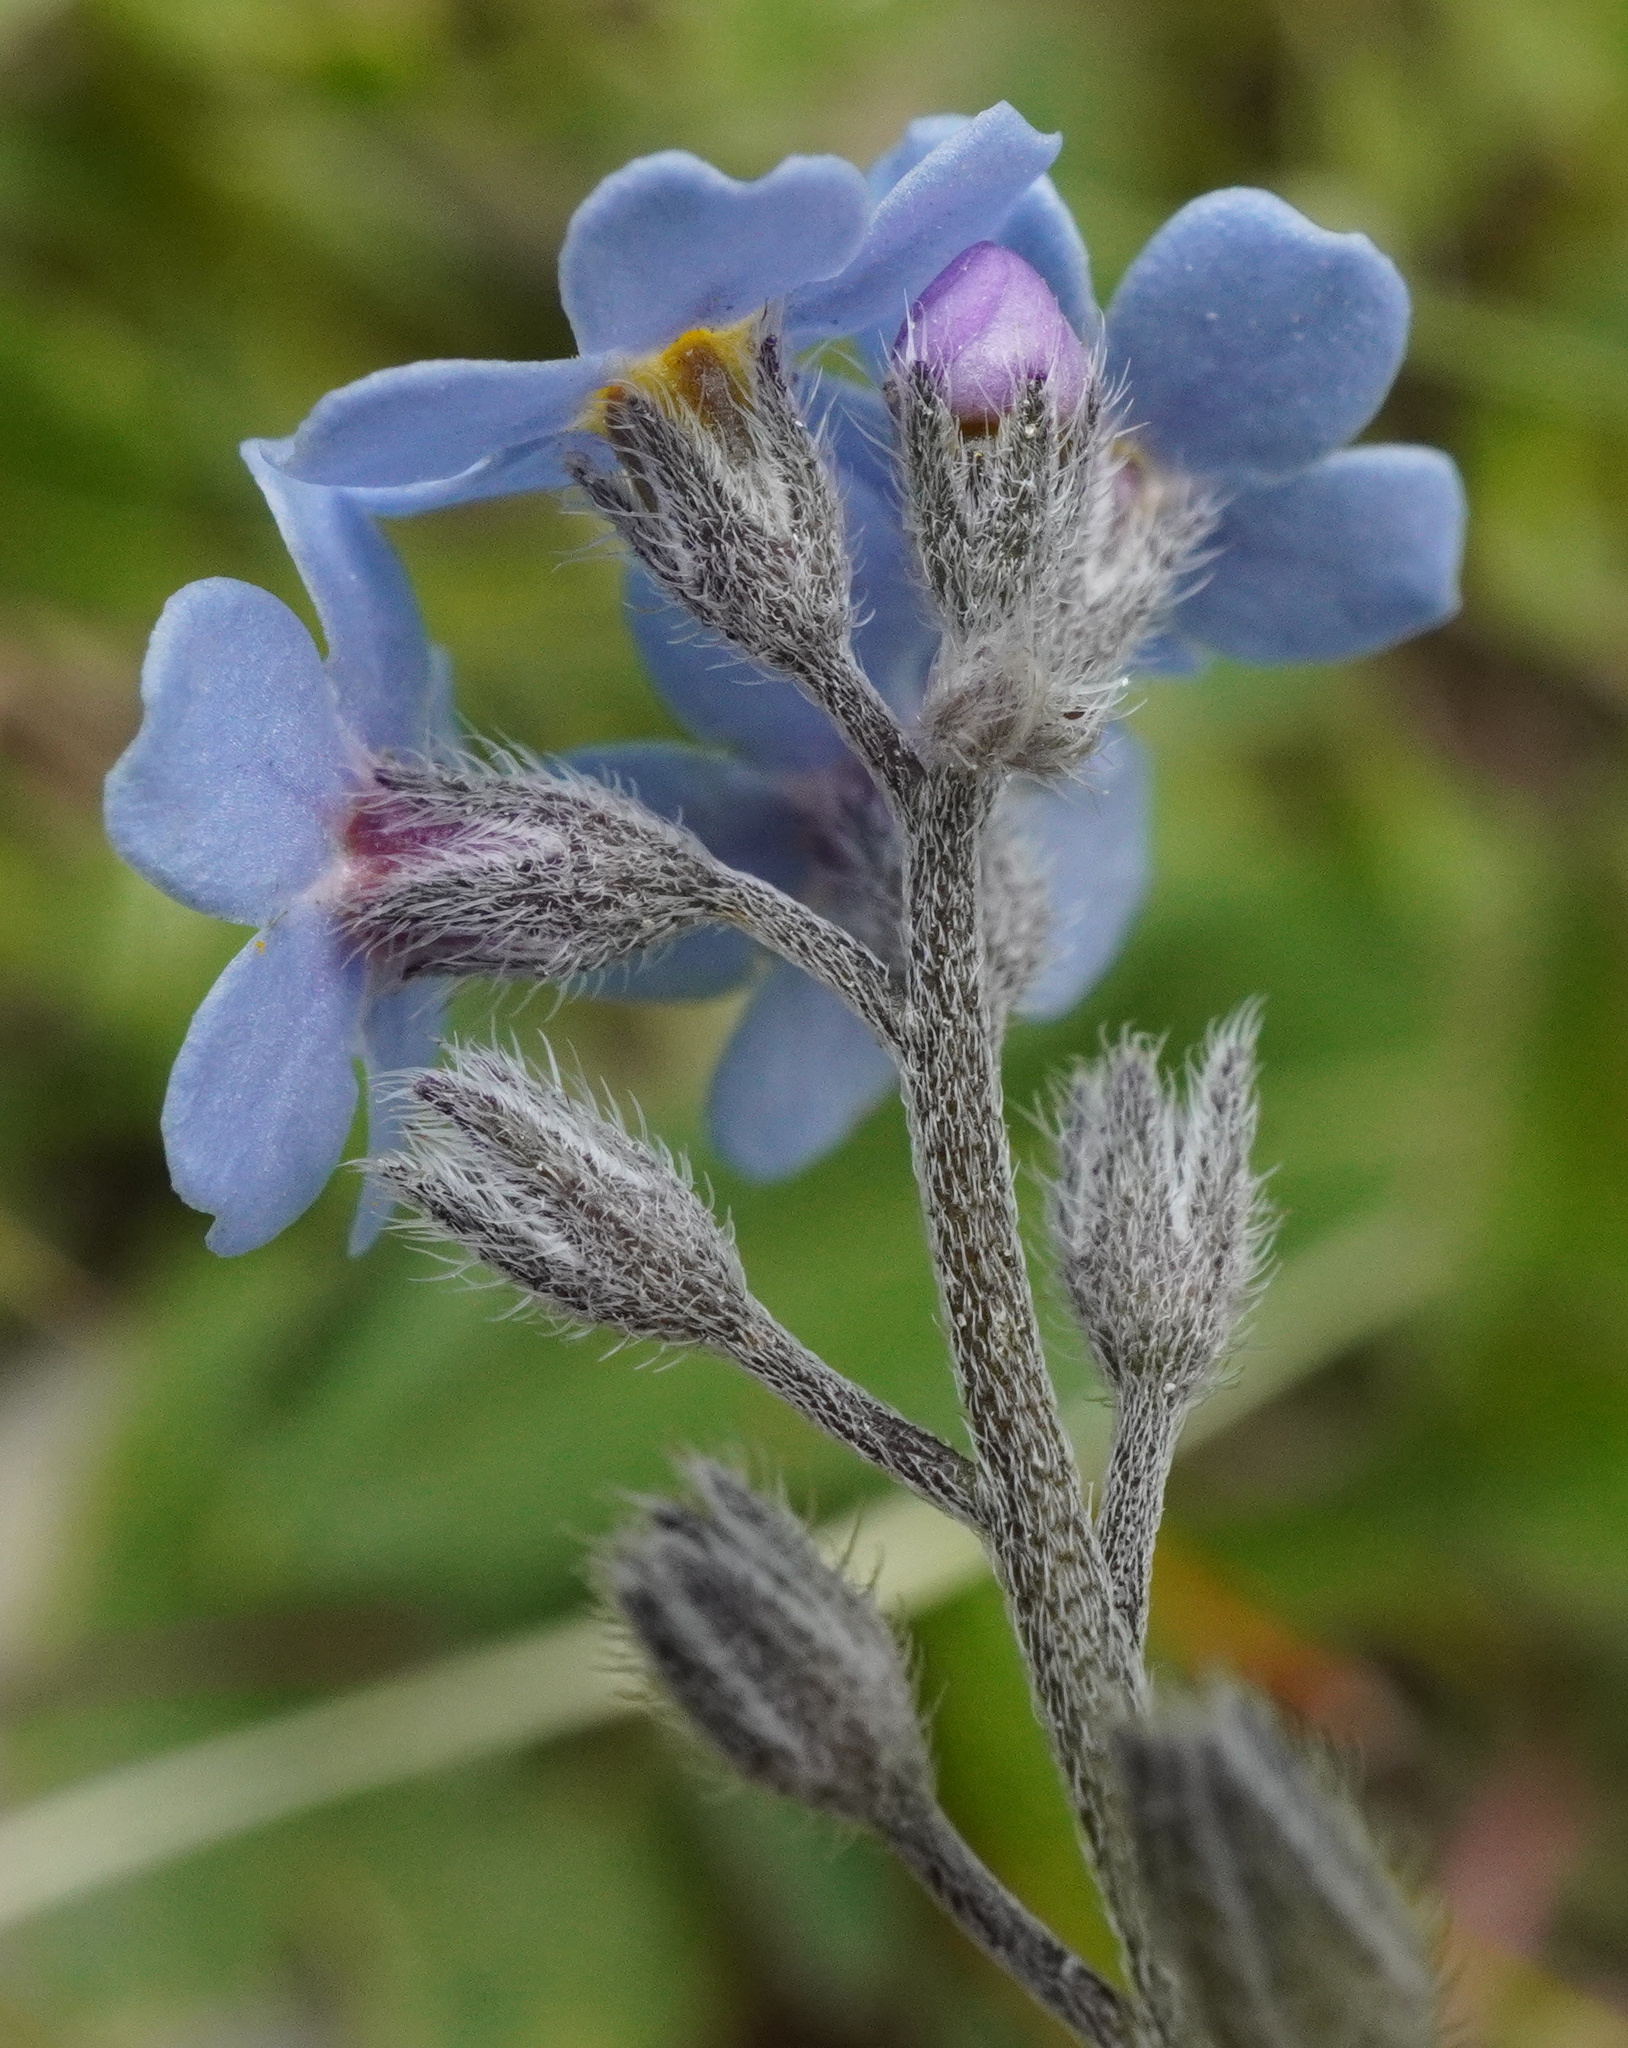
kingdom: Plantae
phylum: Tracheophyta
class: Magnoliopsida
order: Boraginales
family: Boraginaceae
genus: Myosotis
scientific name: Myosotis alpestris
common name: Alpine forget-me-not
